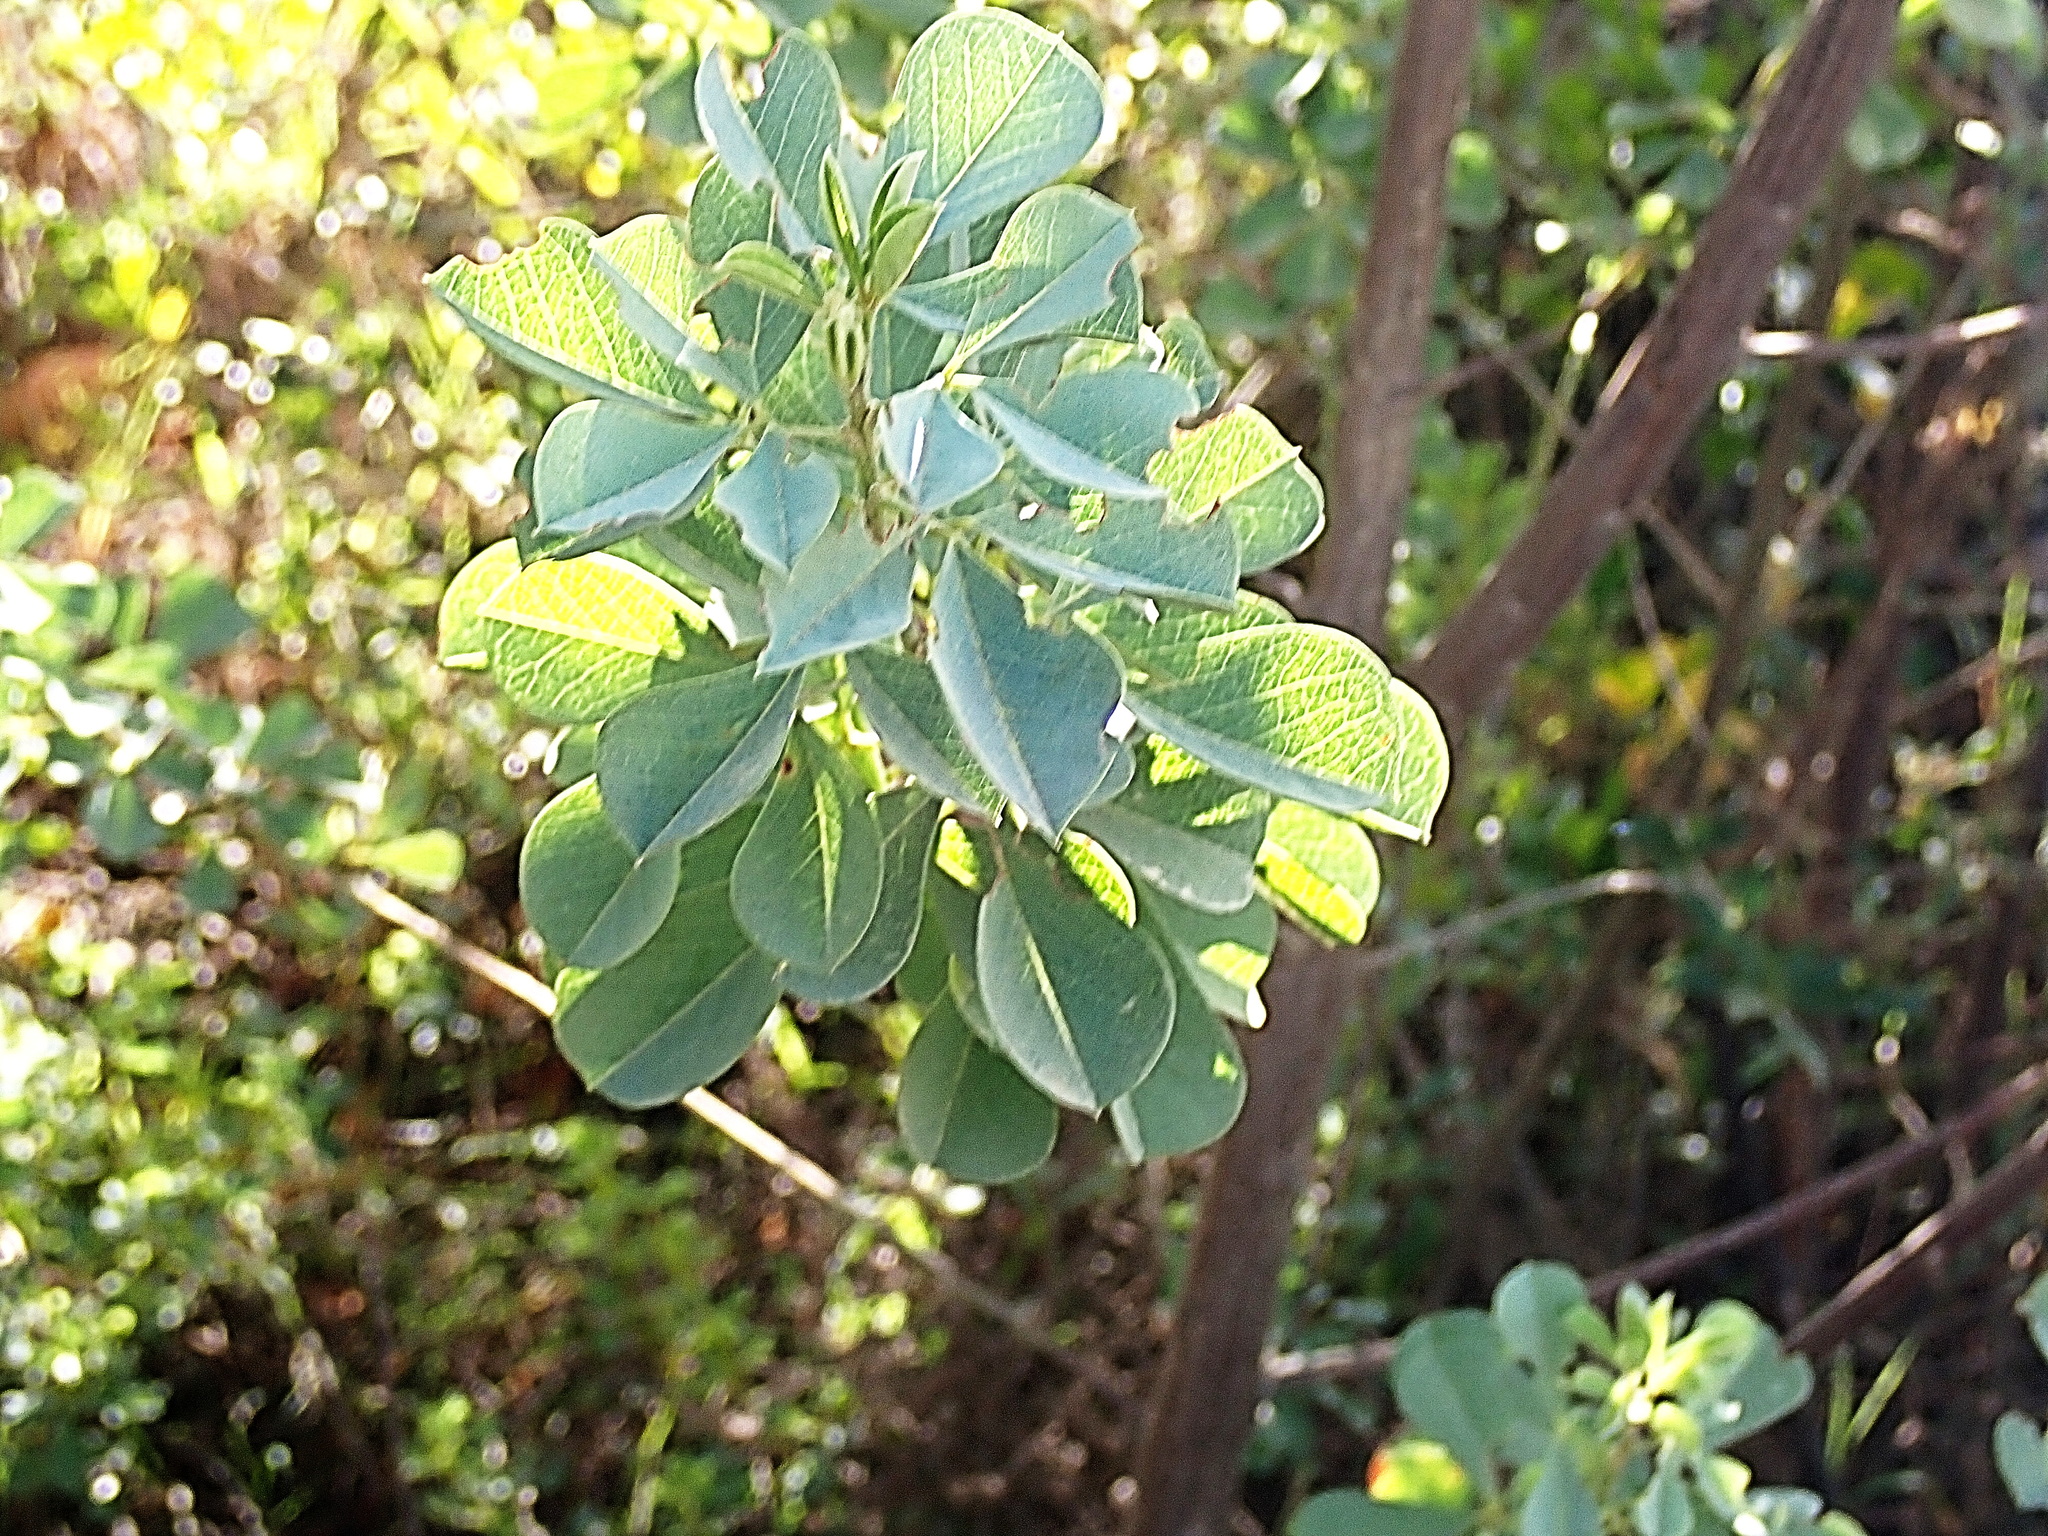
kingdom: Plantae
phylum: Tracheophyta
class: Magnoliopsida
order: Fabales
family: Fabaceae
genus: Hypocalyptus
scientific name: Hypocalyptus sophoroides
